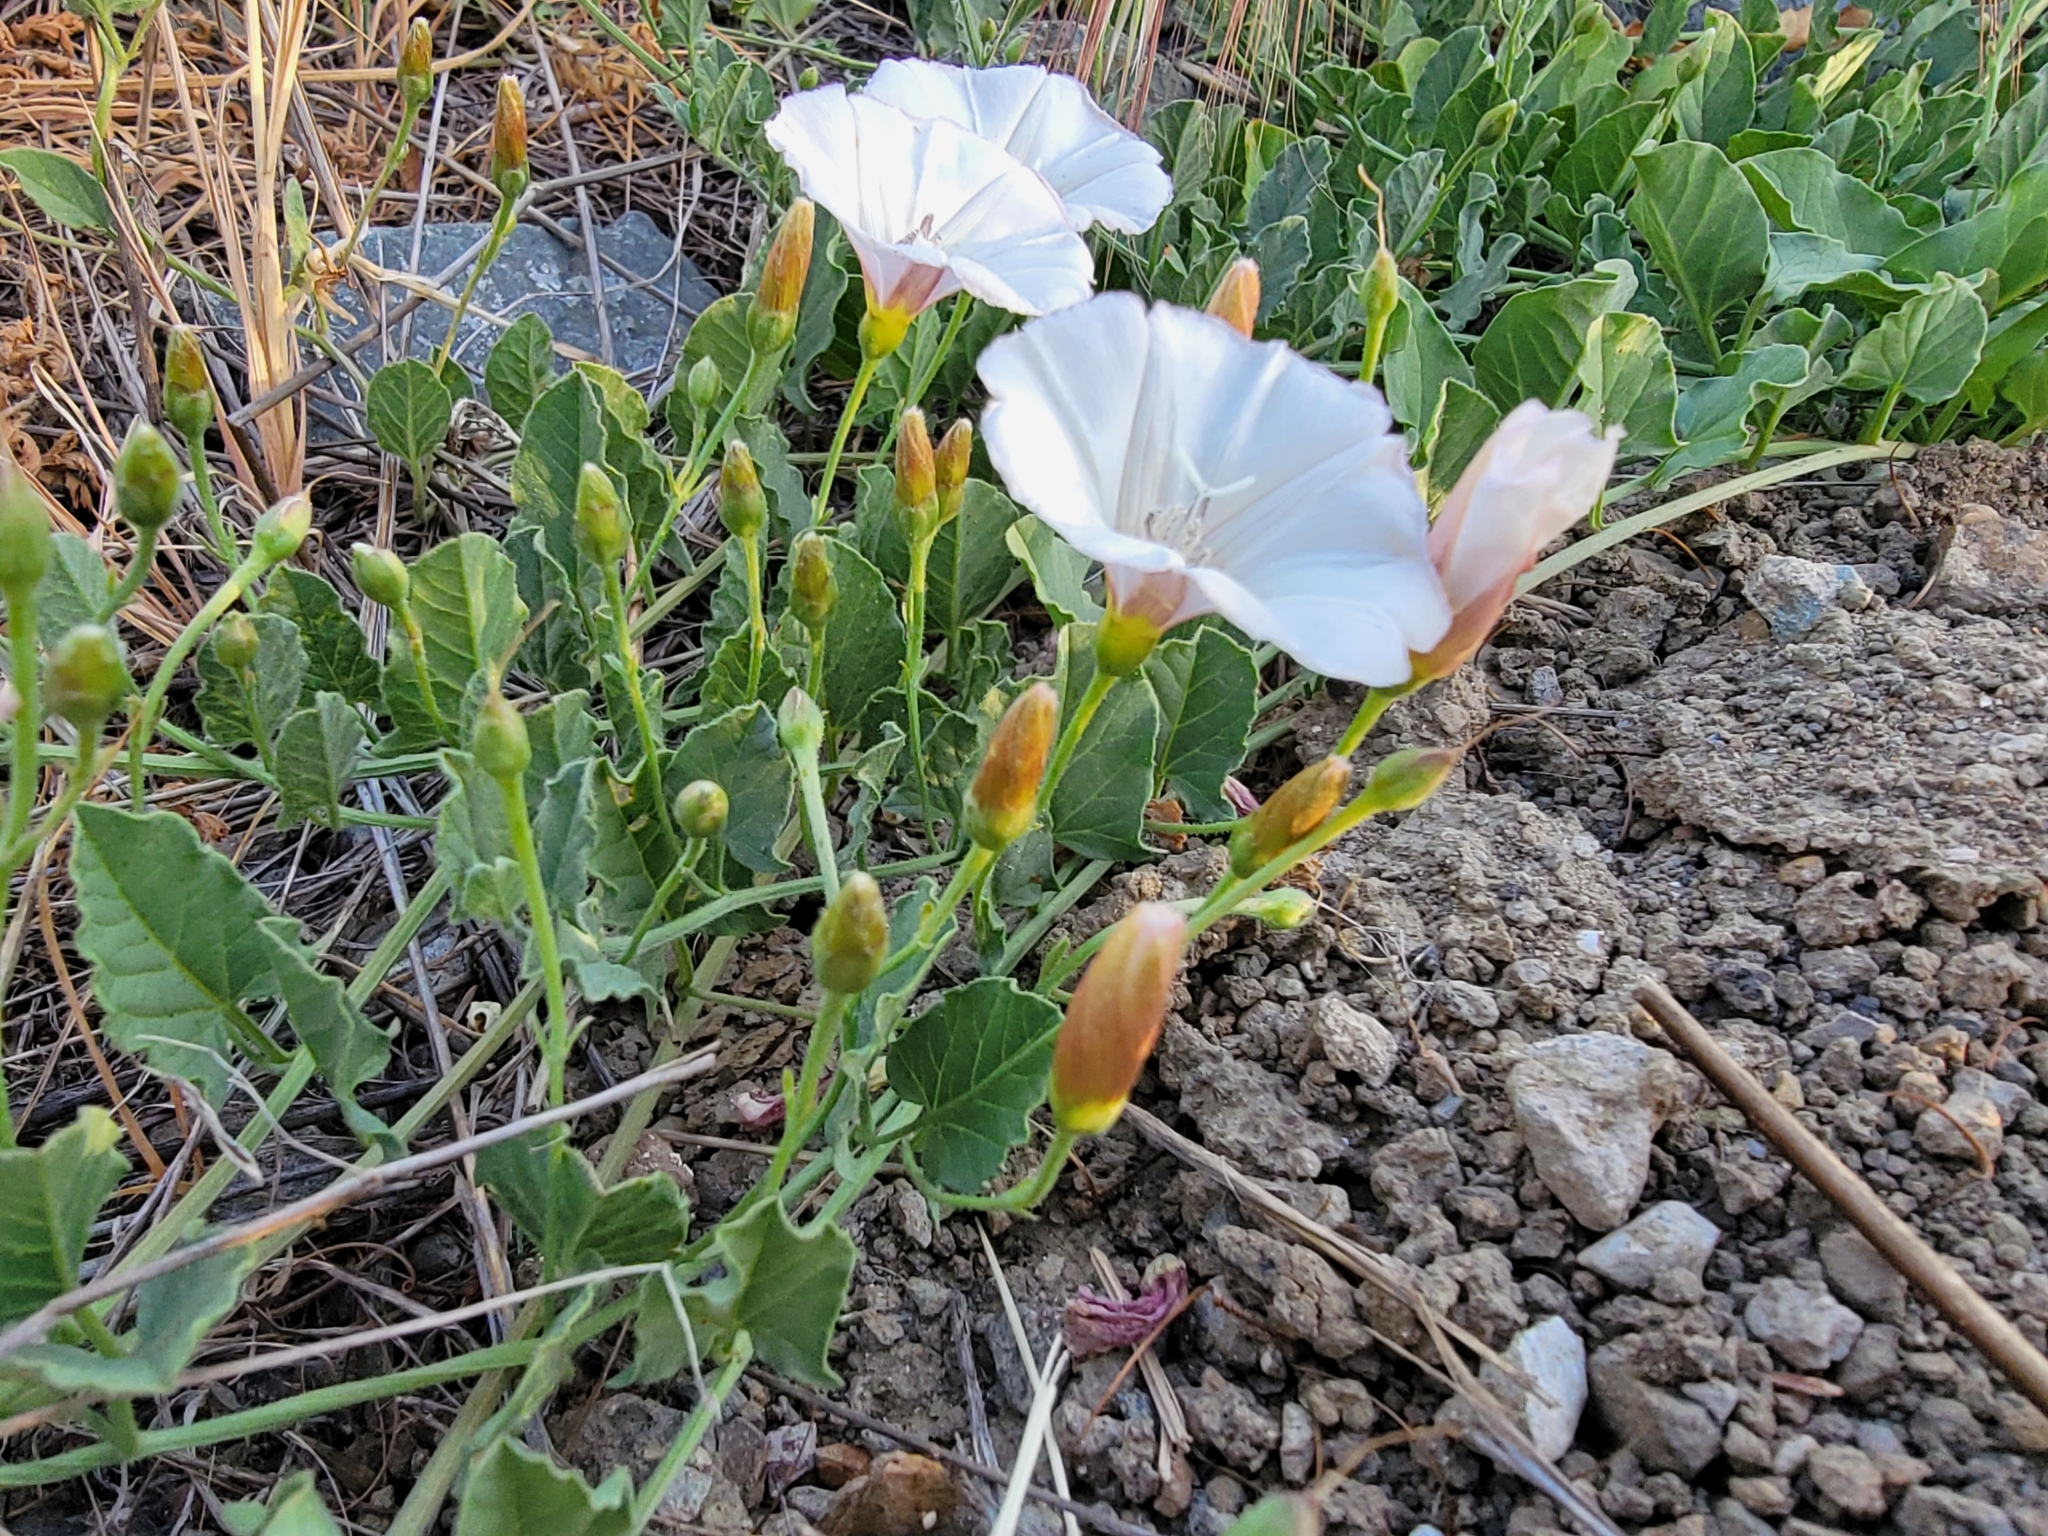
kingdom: Plantae
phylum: Tracheophyta
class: Magnoliopsida
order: Solanales
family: Convolvulaceae
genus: Convolvulus
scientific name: Convolvulus arvensis
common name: Field bindweed
